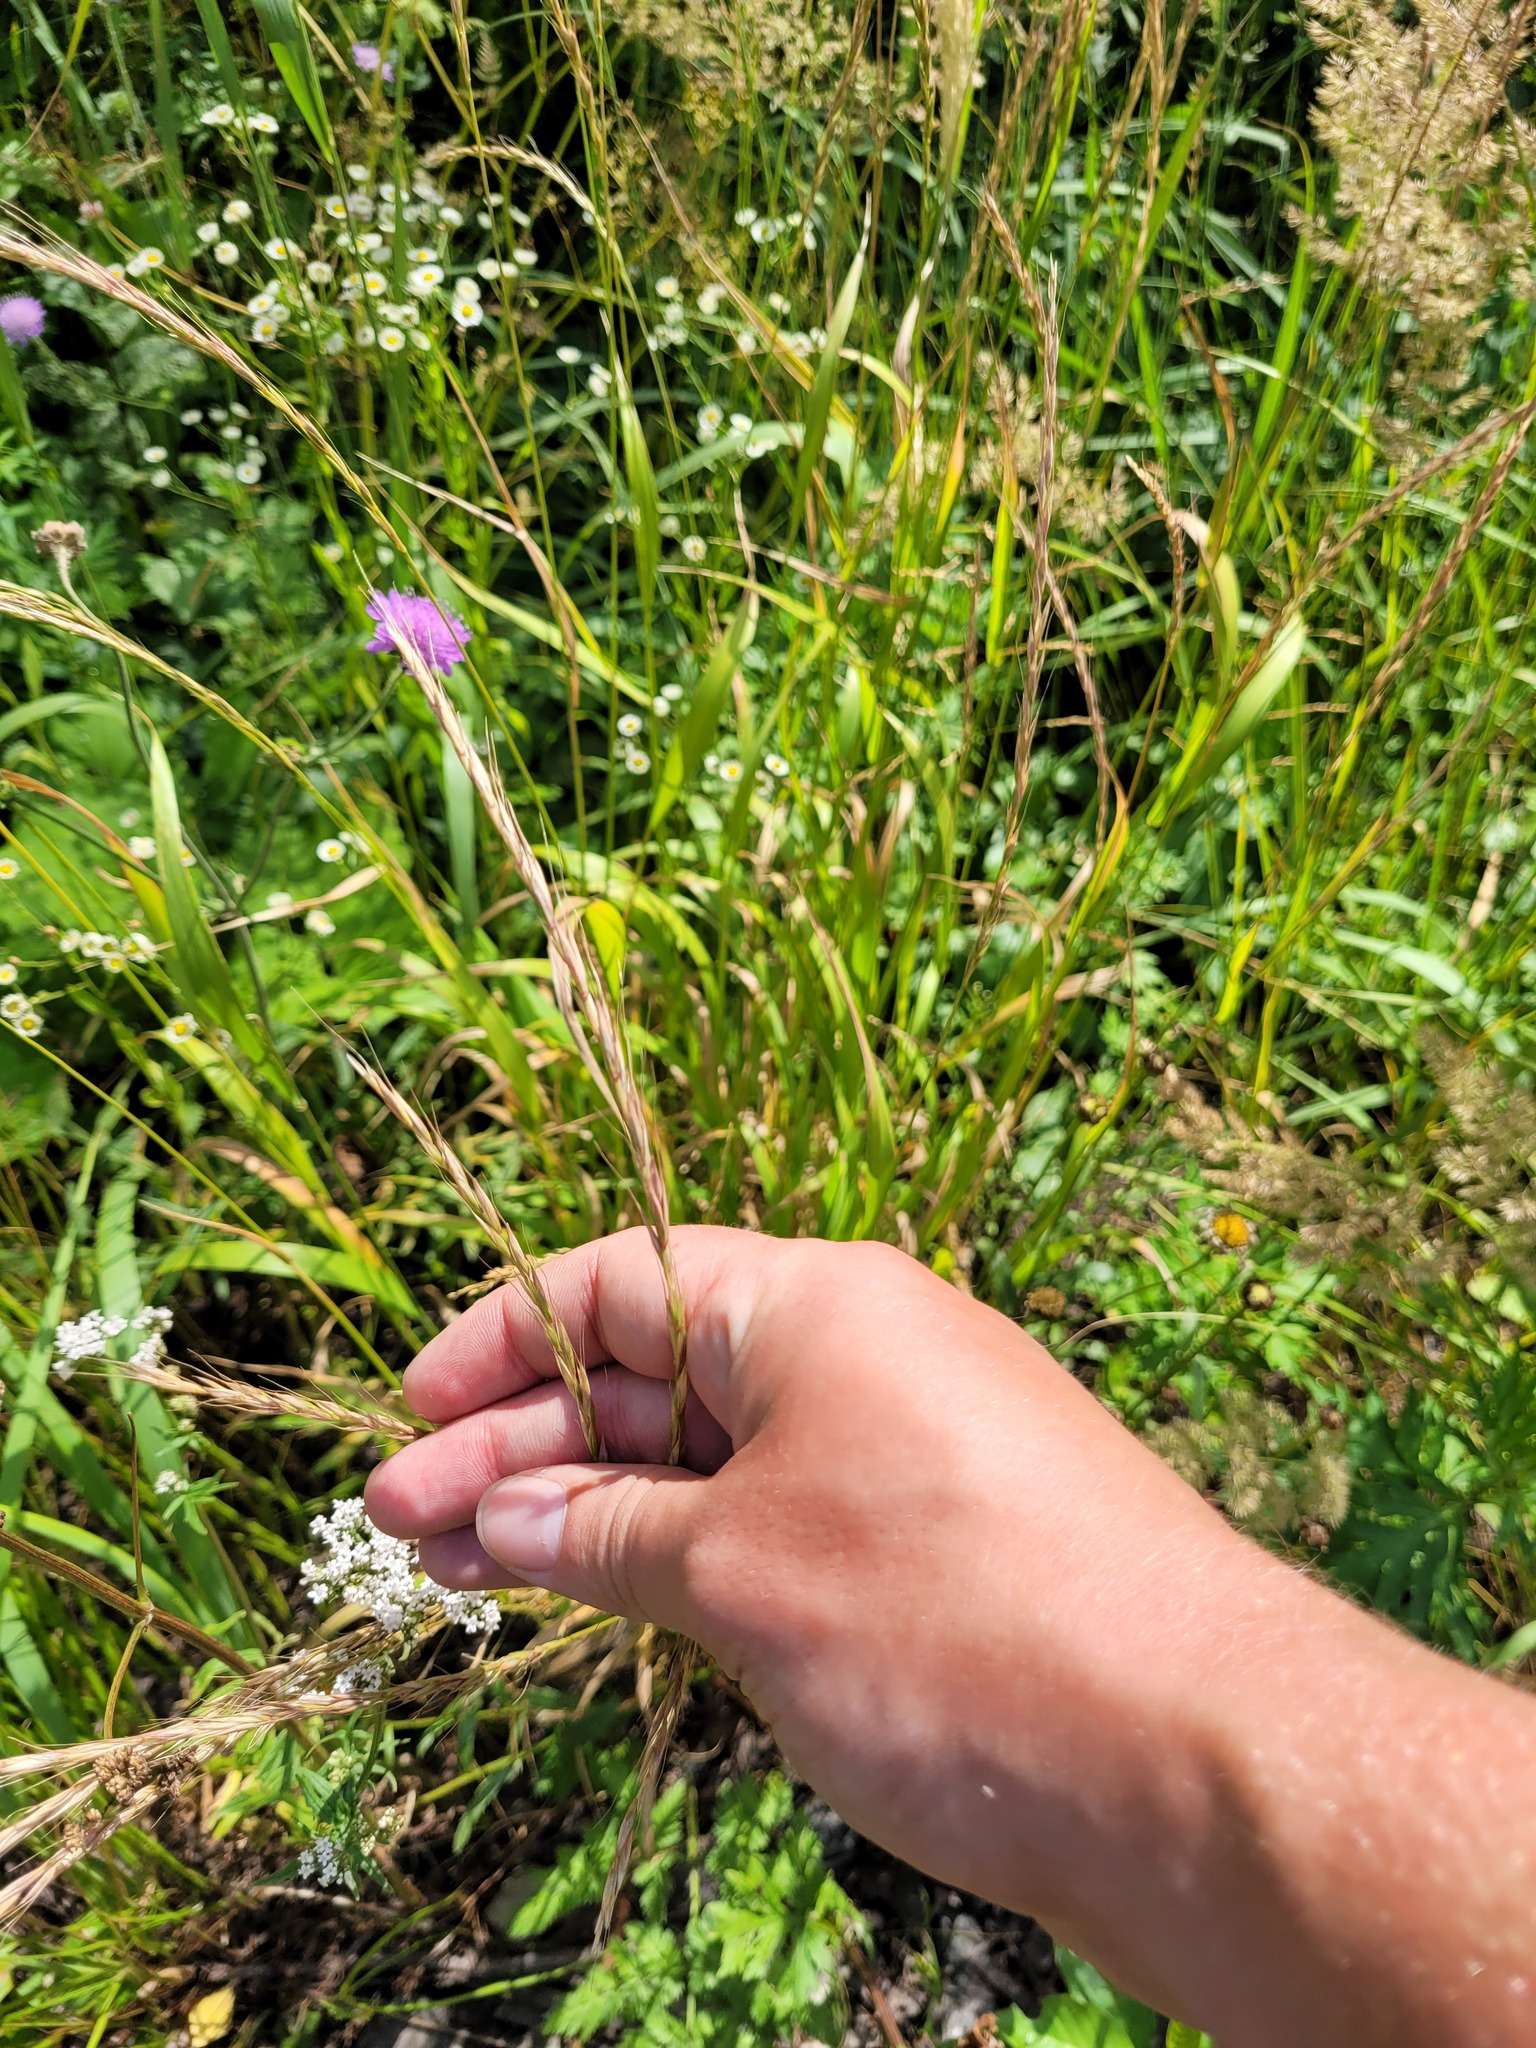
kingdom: Plantae
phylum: Tracheophyta
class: Liliopsida
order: Poales
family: Poaceae
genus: Elymus
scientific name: Elymus caninus
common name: Bearded couch
